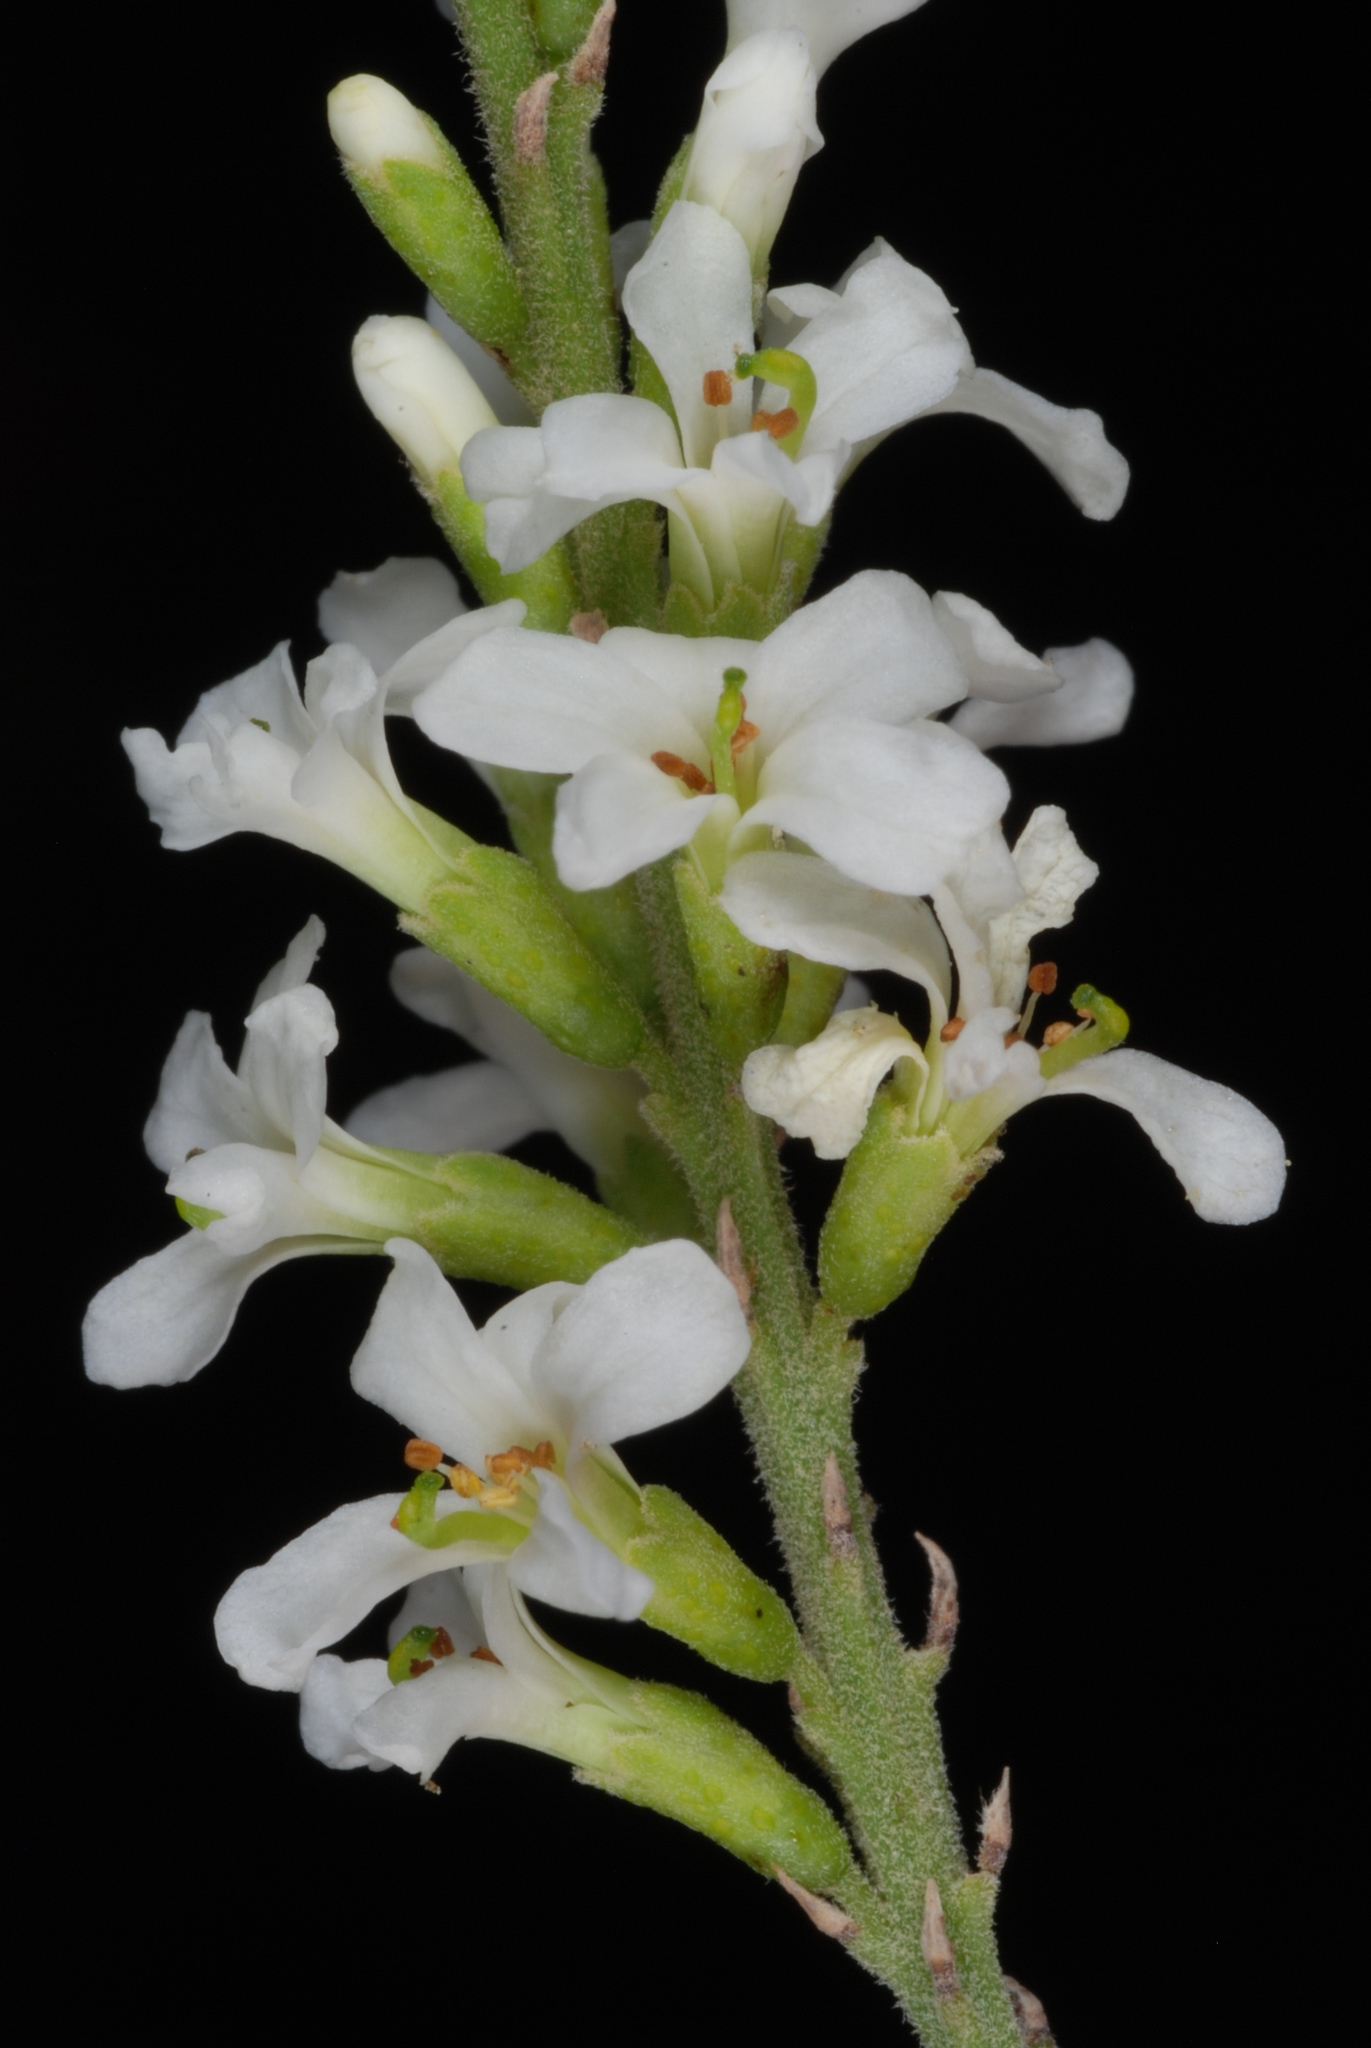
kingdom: Plantae
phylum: Tracheophyta
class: Magnoliopsida
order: Fabales
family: Fabaceae
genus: Eysenhardtia
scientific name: Eysenhardtia texana
